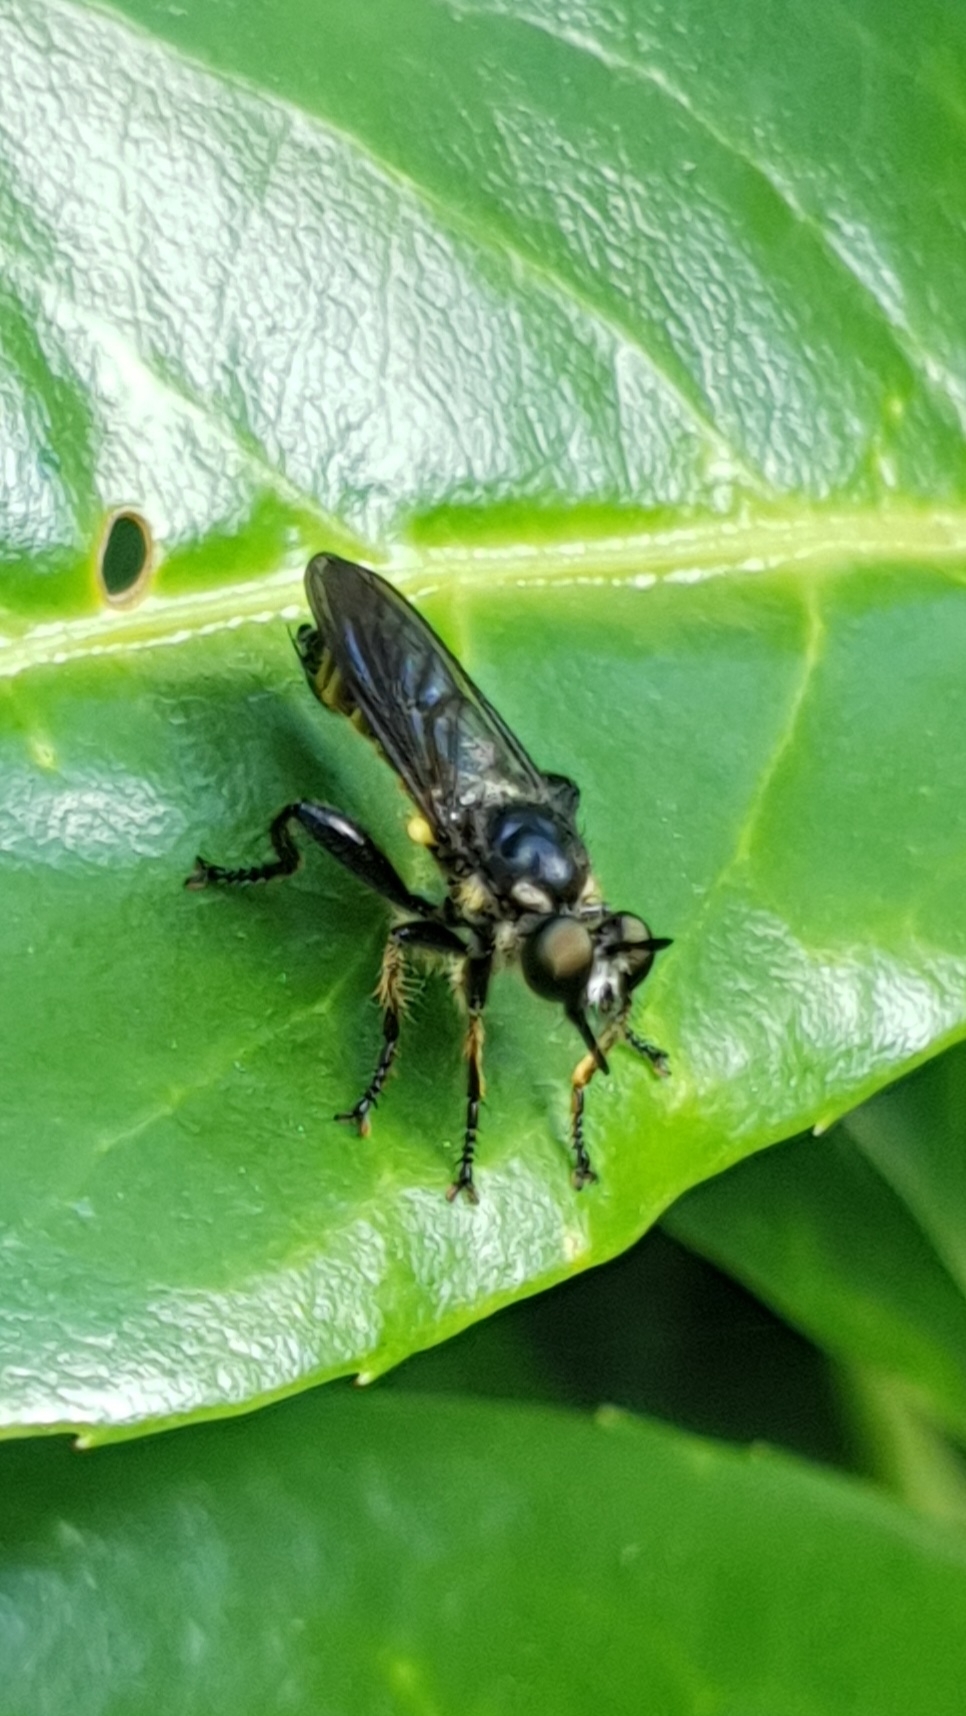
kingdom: Animalia
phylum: Arthropoda
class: Insecta
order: Diptera
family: Asilidae
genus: Lamyra
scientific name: Lamyra fimbriata
